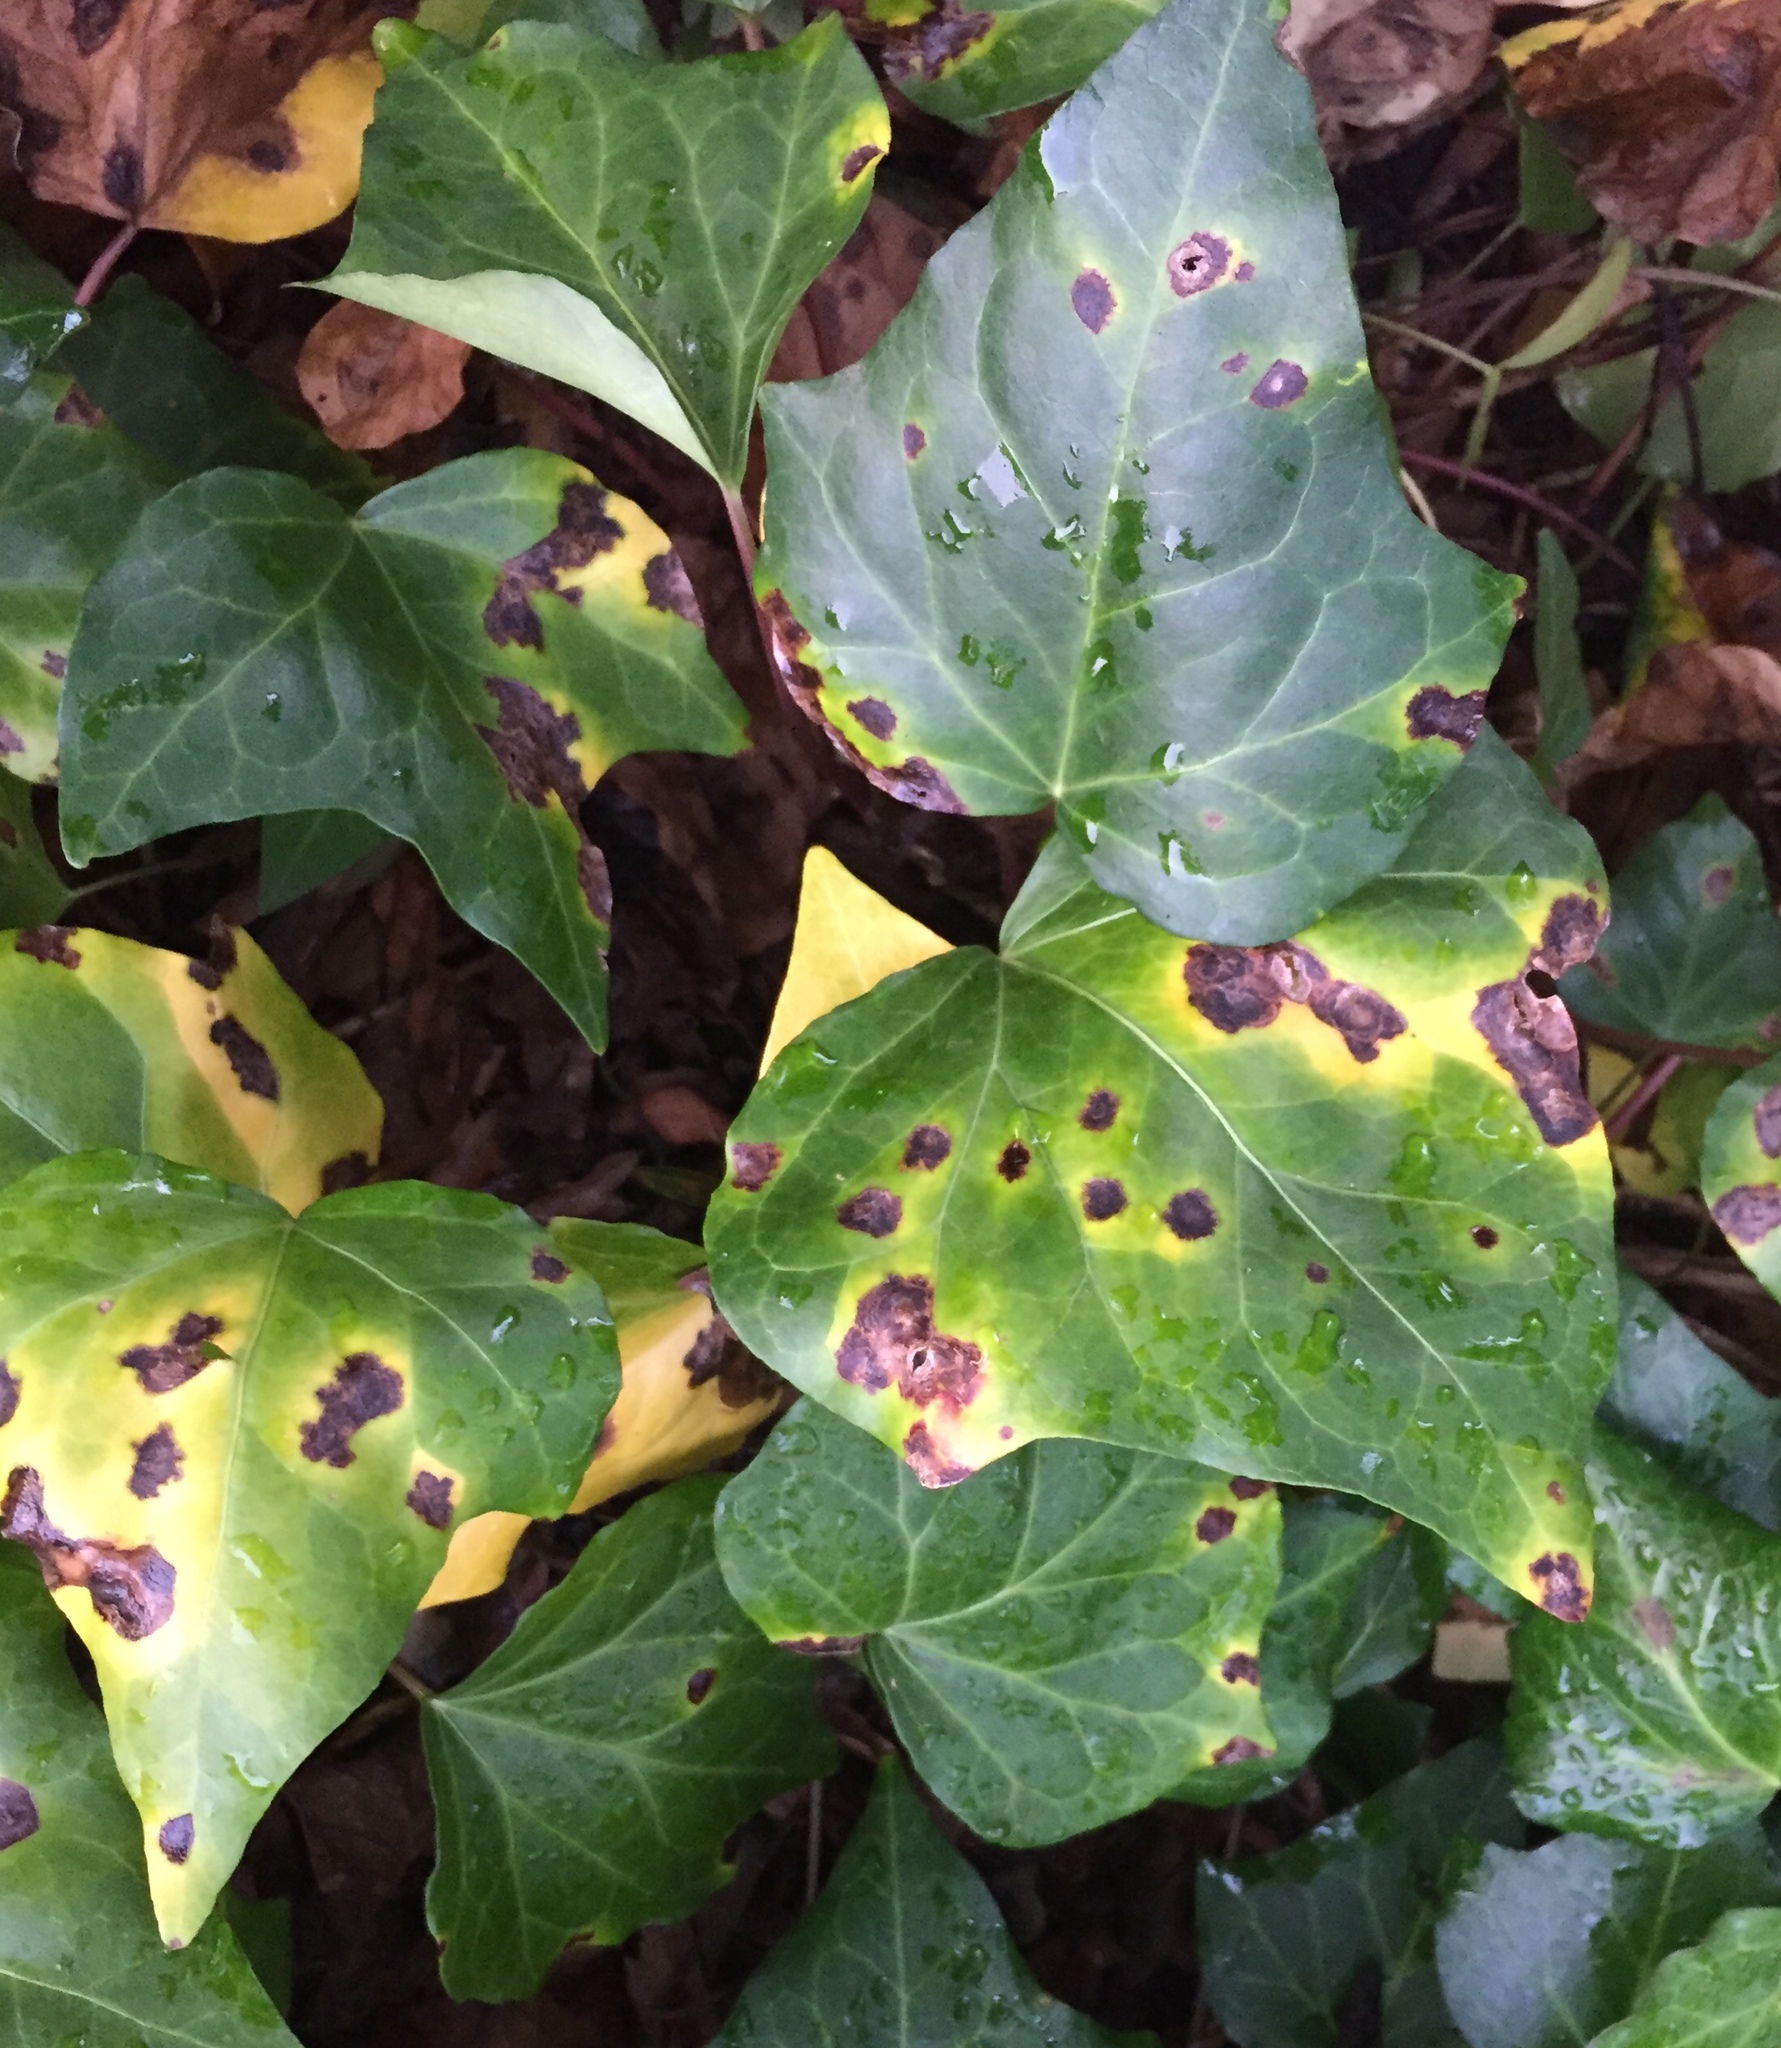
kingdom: Bacteria
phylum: Proteobacteria
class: Gammaproteobacteria
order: Xanthomonadales
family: Xanthomonadaceae
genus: Xanthomonas
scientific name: Xanthomonas campestris
